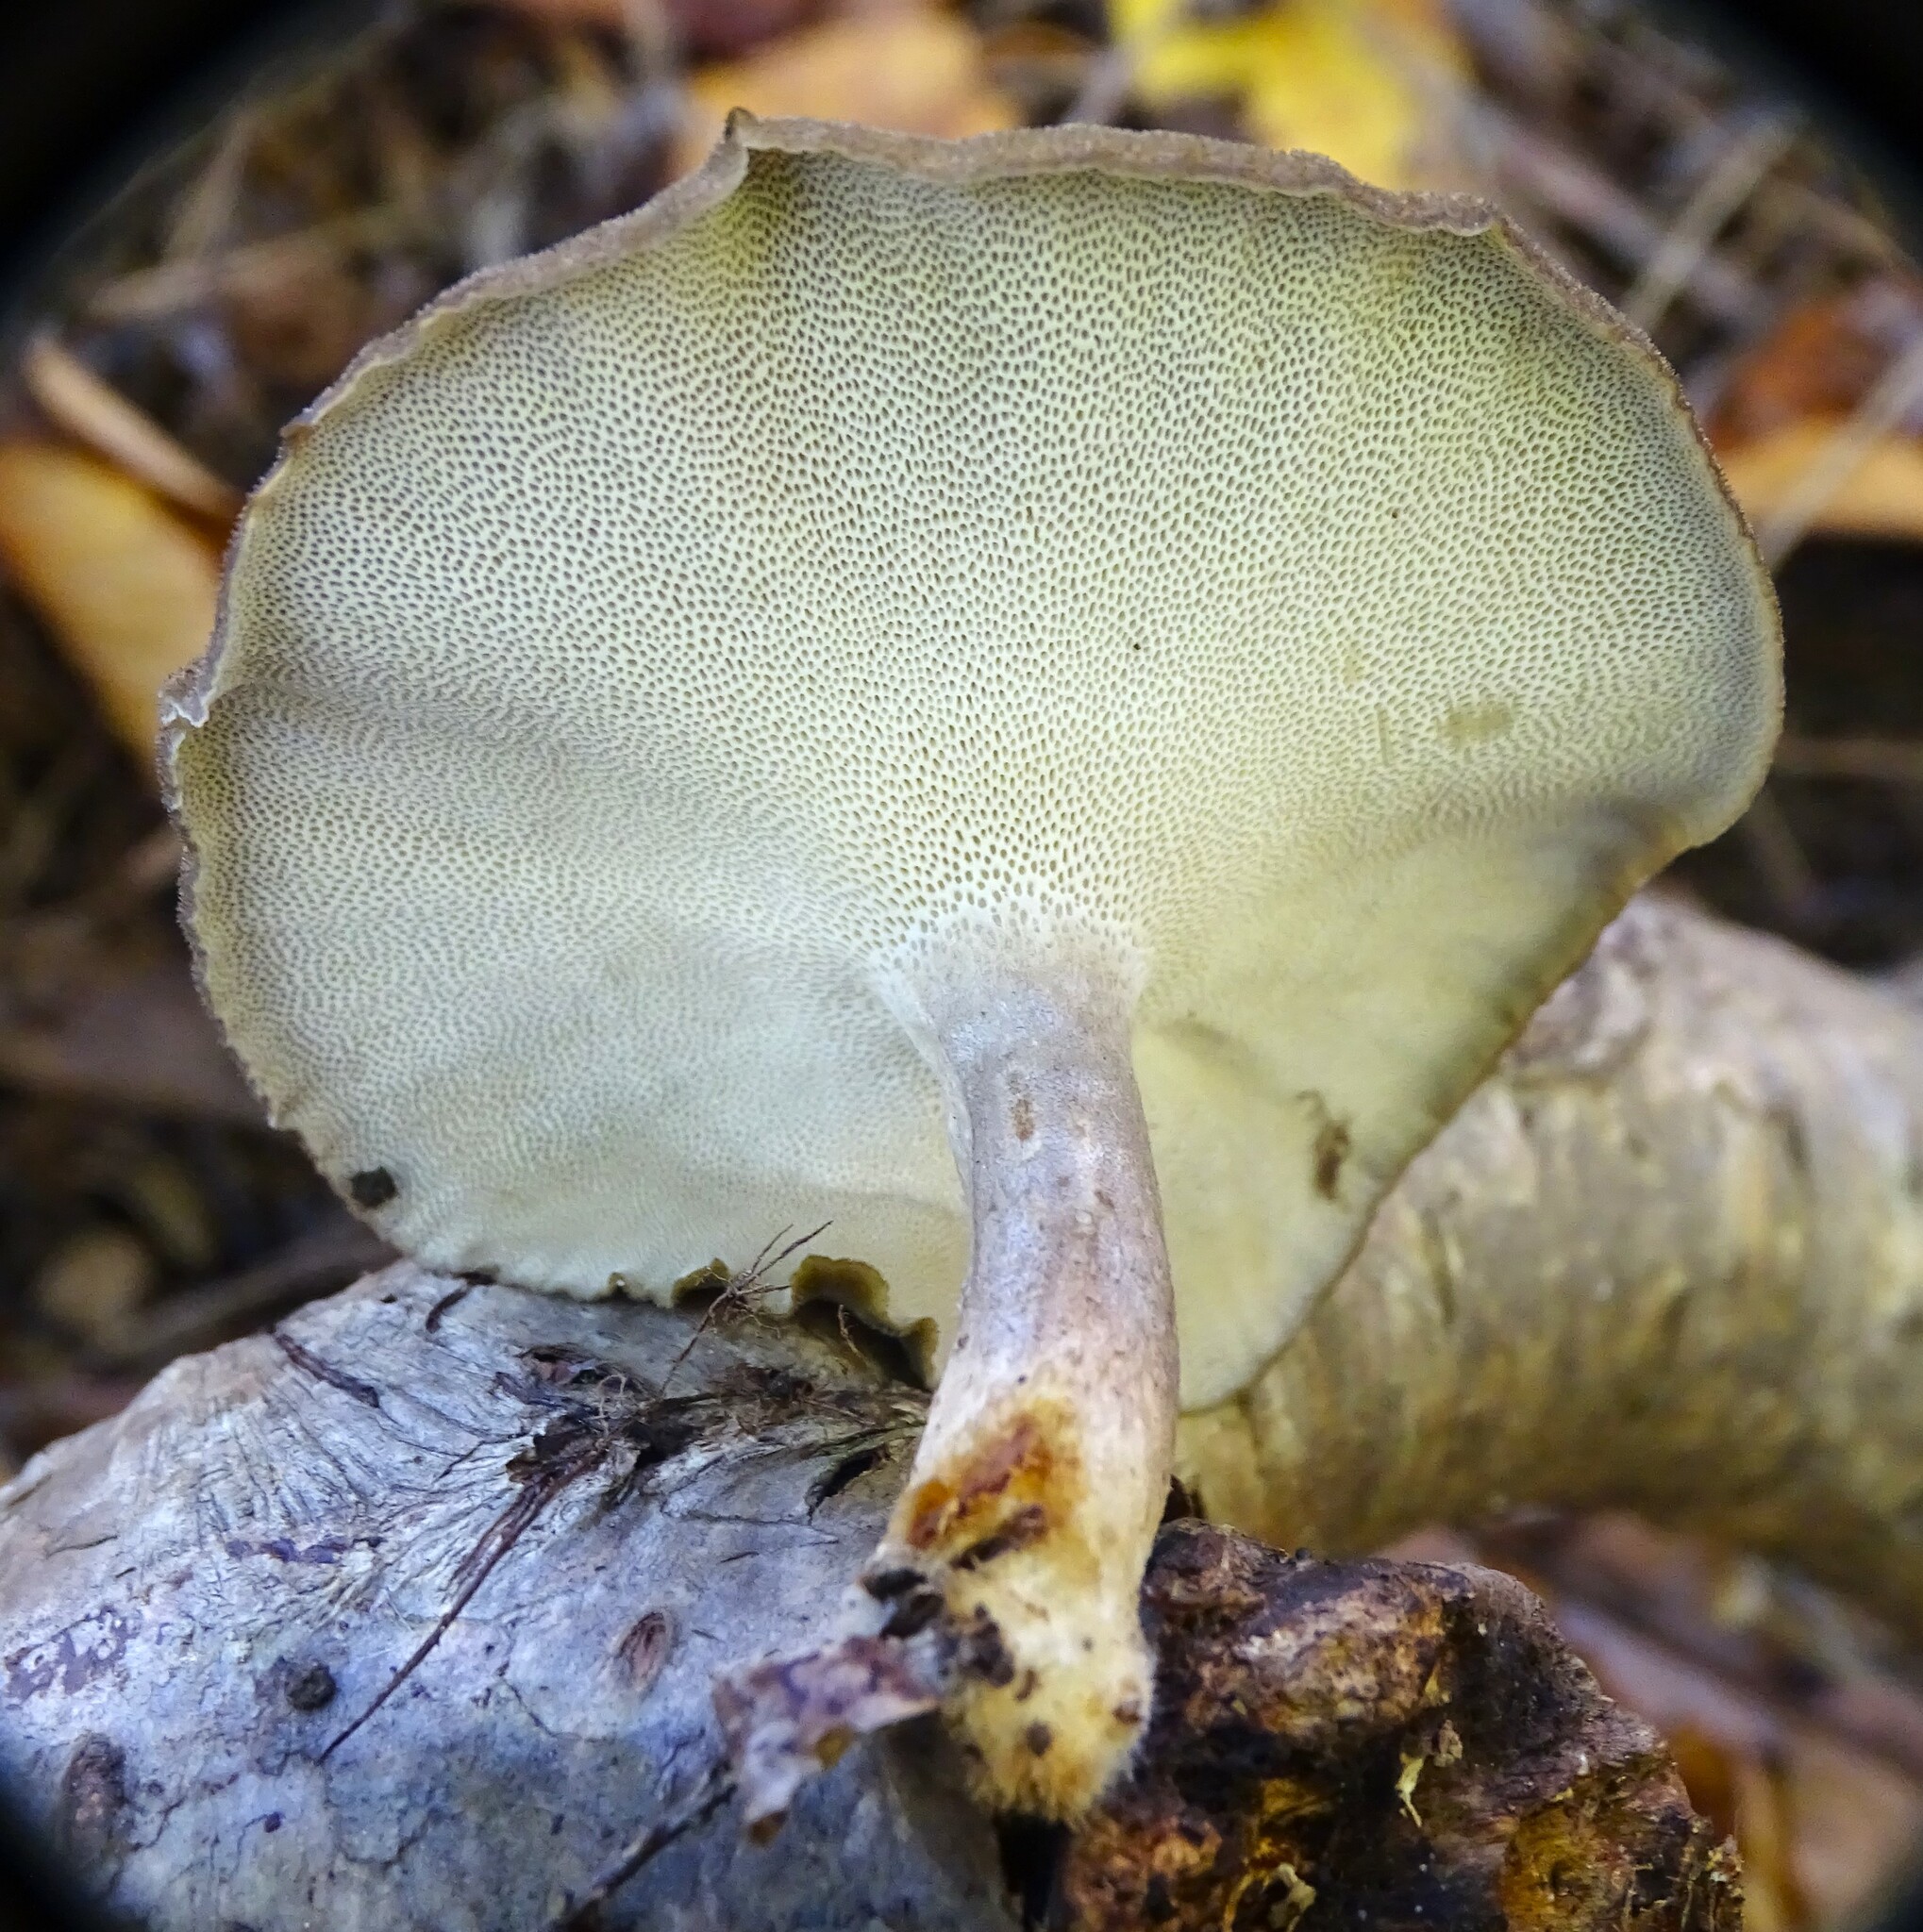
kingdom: Fungi
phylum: Basidiomycota
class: Agaricomycetes
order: Polyporales
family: Polyporaceae
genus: Lentinus
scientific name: Lentinus brumalis
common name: Winter polypore
